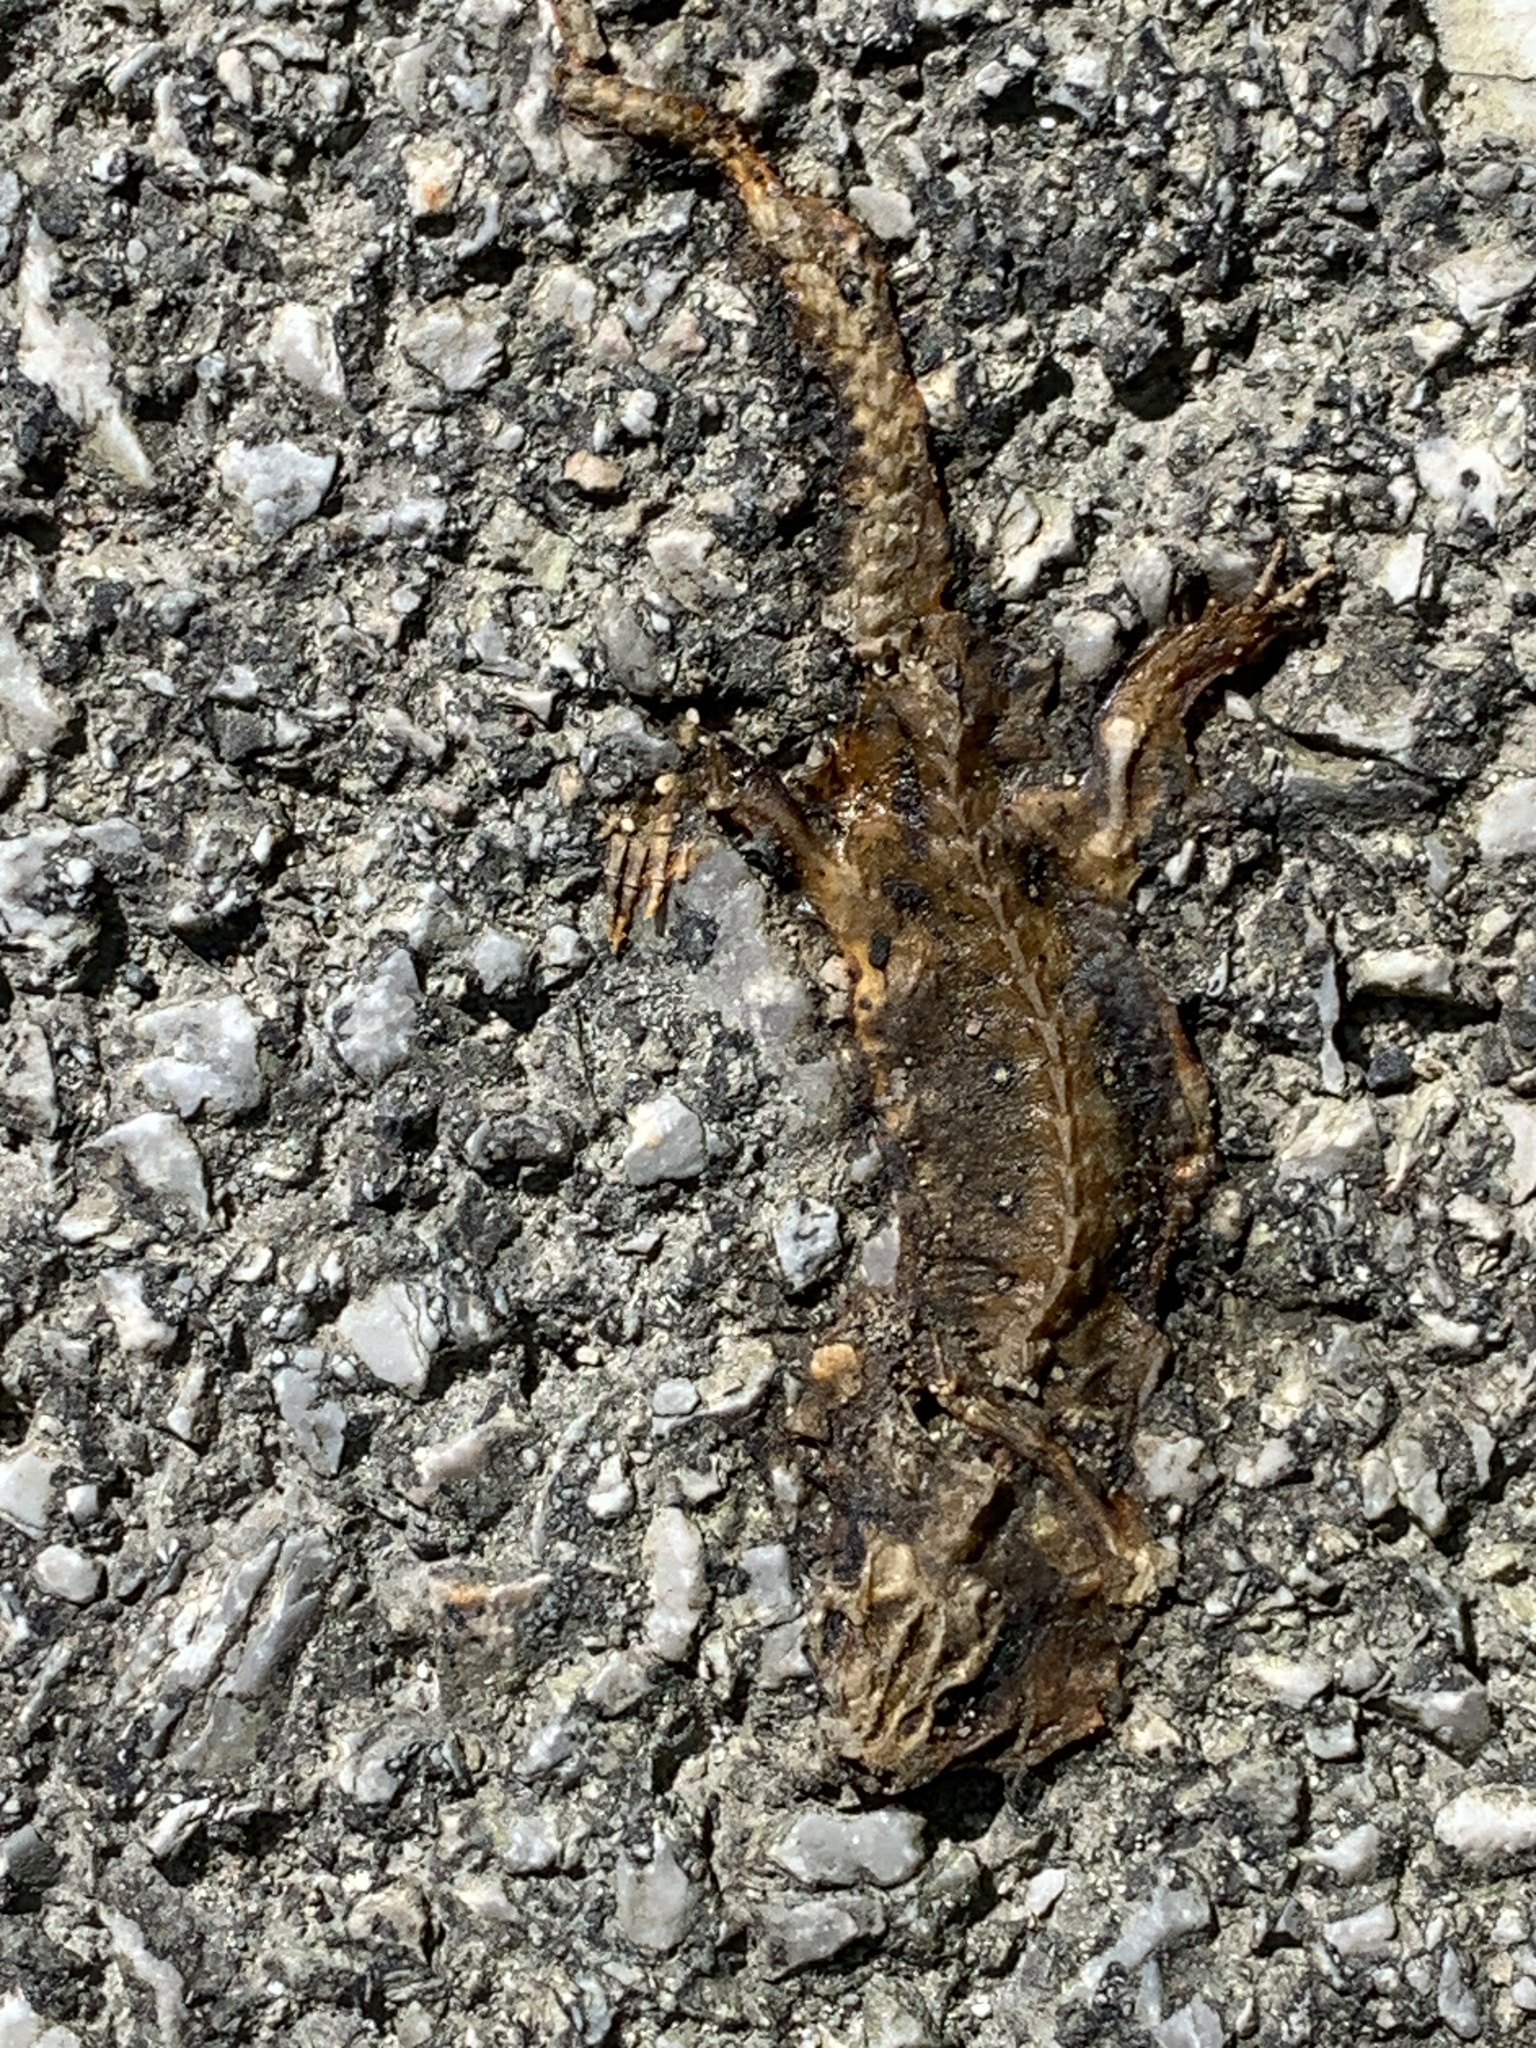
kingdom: Animalia
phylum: Chordata
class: Amphibia
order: Caudata
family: Salamandridae
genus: Notophthalmus
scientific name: Notophthalmus viridescens
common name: Eastern newt
